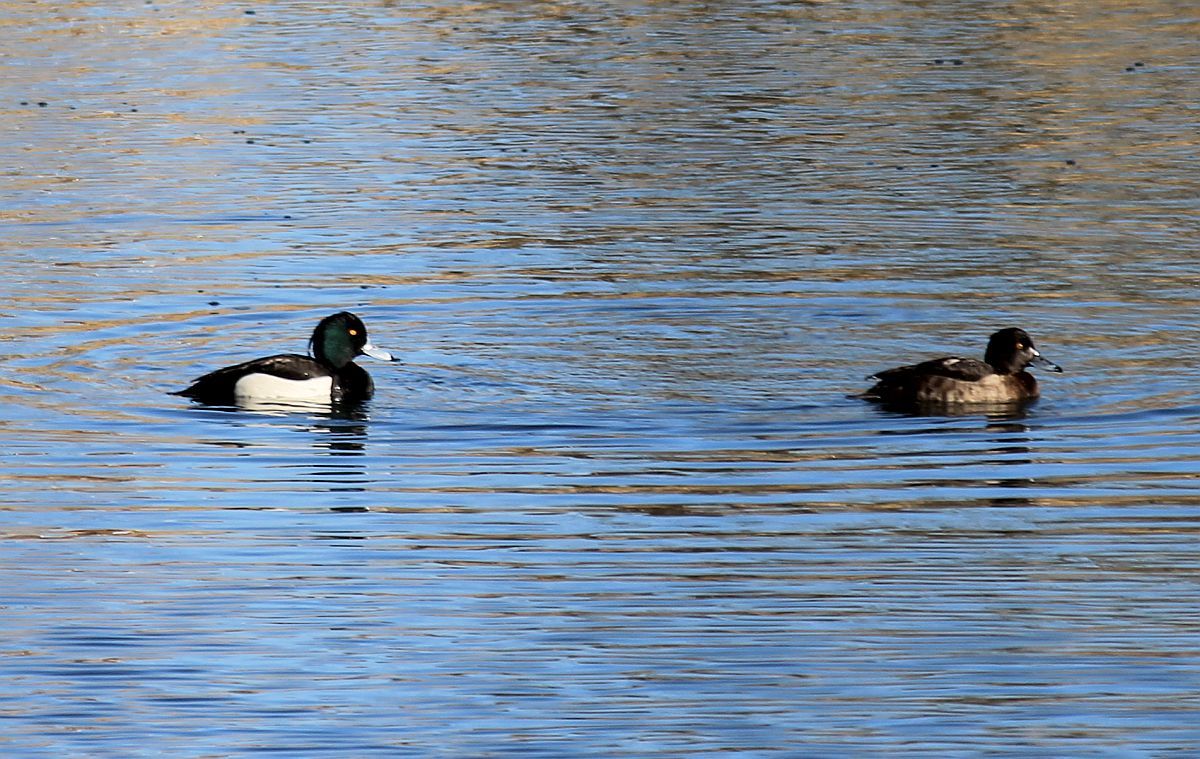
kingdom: Animalia
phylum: Chordata
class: Aves
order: Anseriformes
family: Anatidae
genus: Aythya
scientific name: Aythya fuligula
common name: Tufted duck
